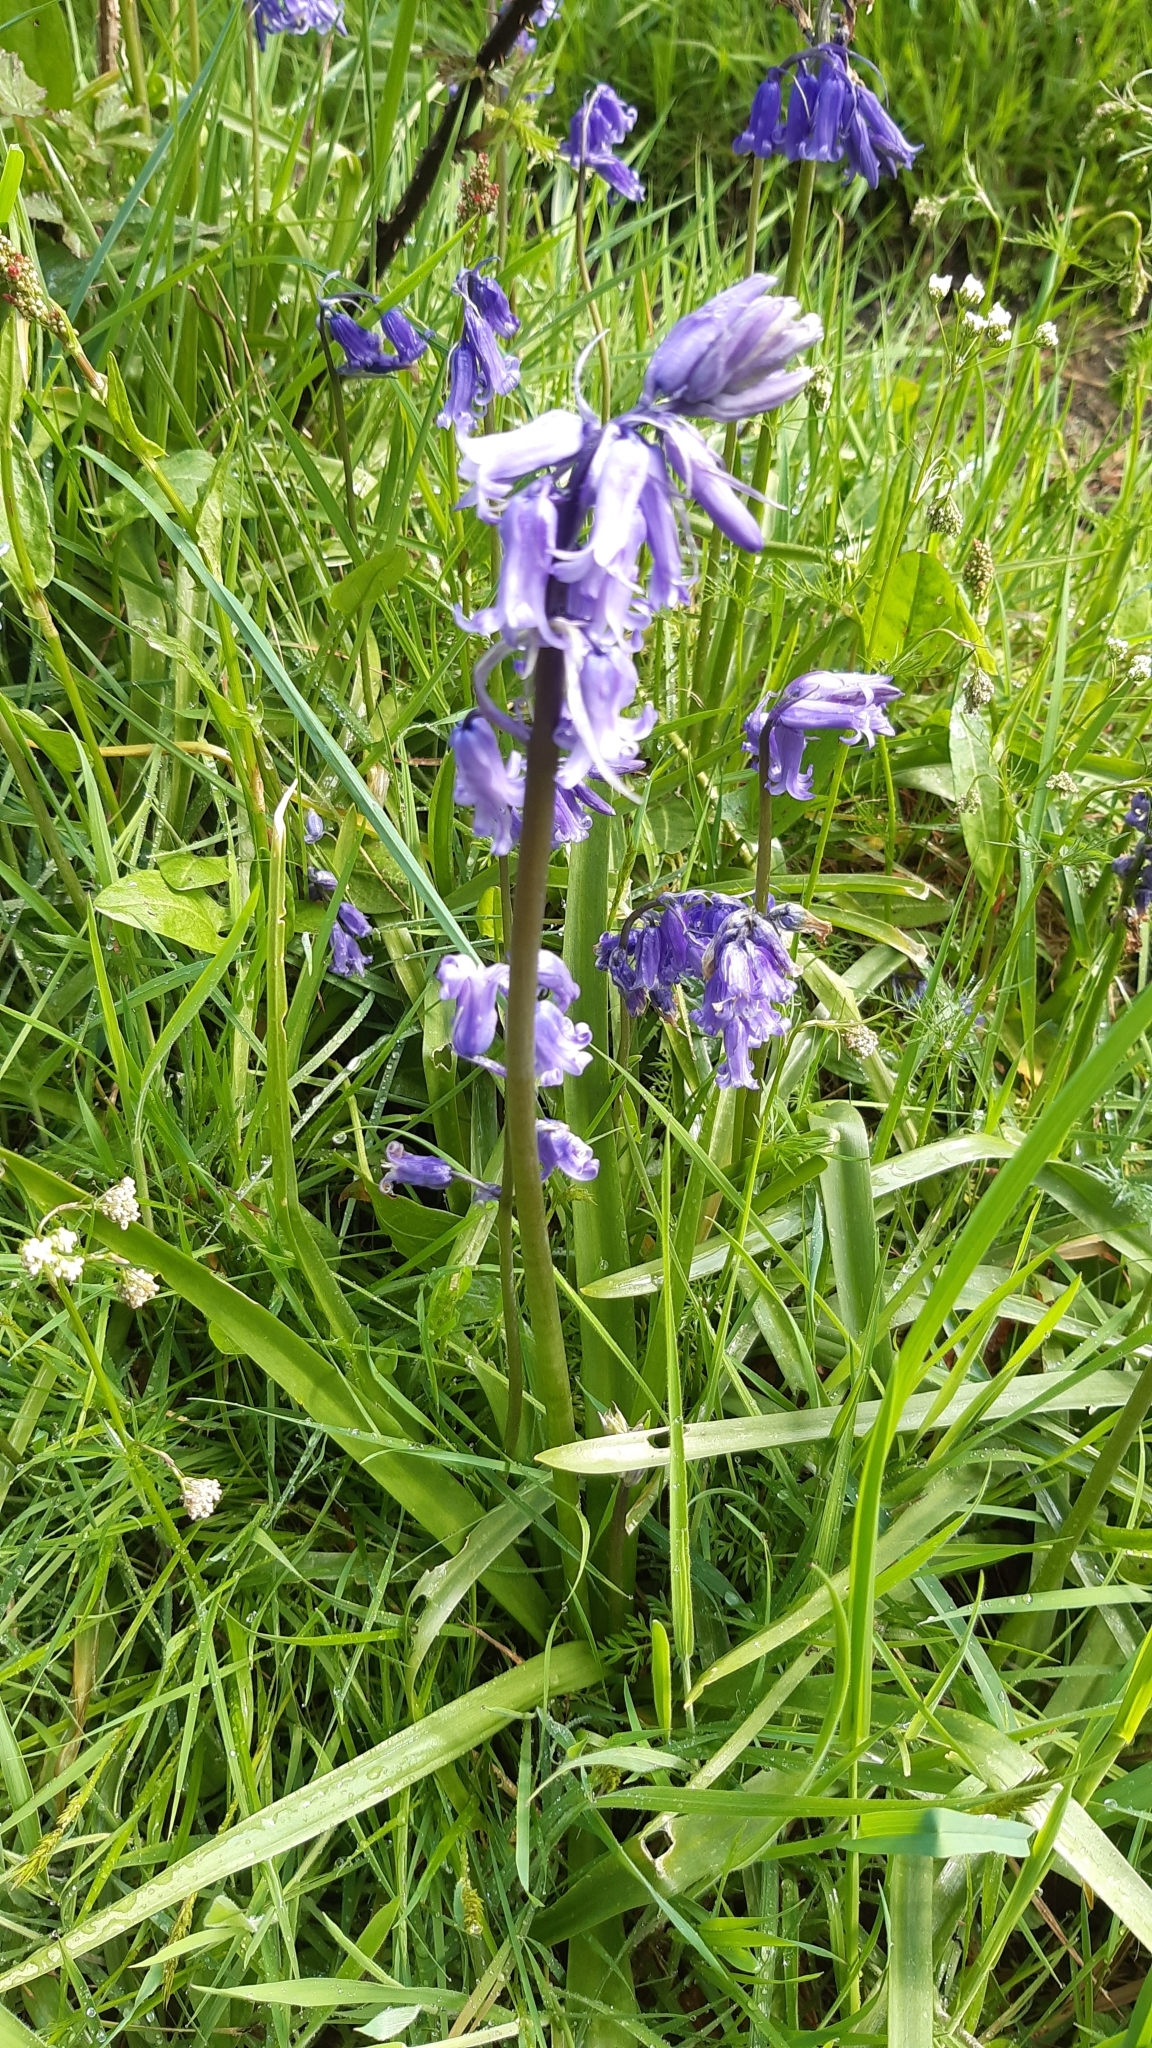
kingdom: Plantae
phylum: Tracheophyta
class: Liliopsida
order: Asparagales
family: Asparagaceae
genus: Hyacinthoides
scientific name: Hyacinthoides non-scripta
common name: Bluebell
